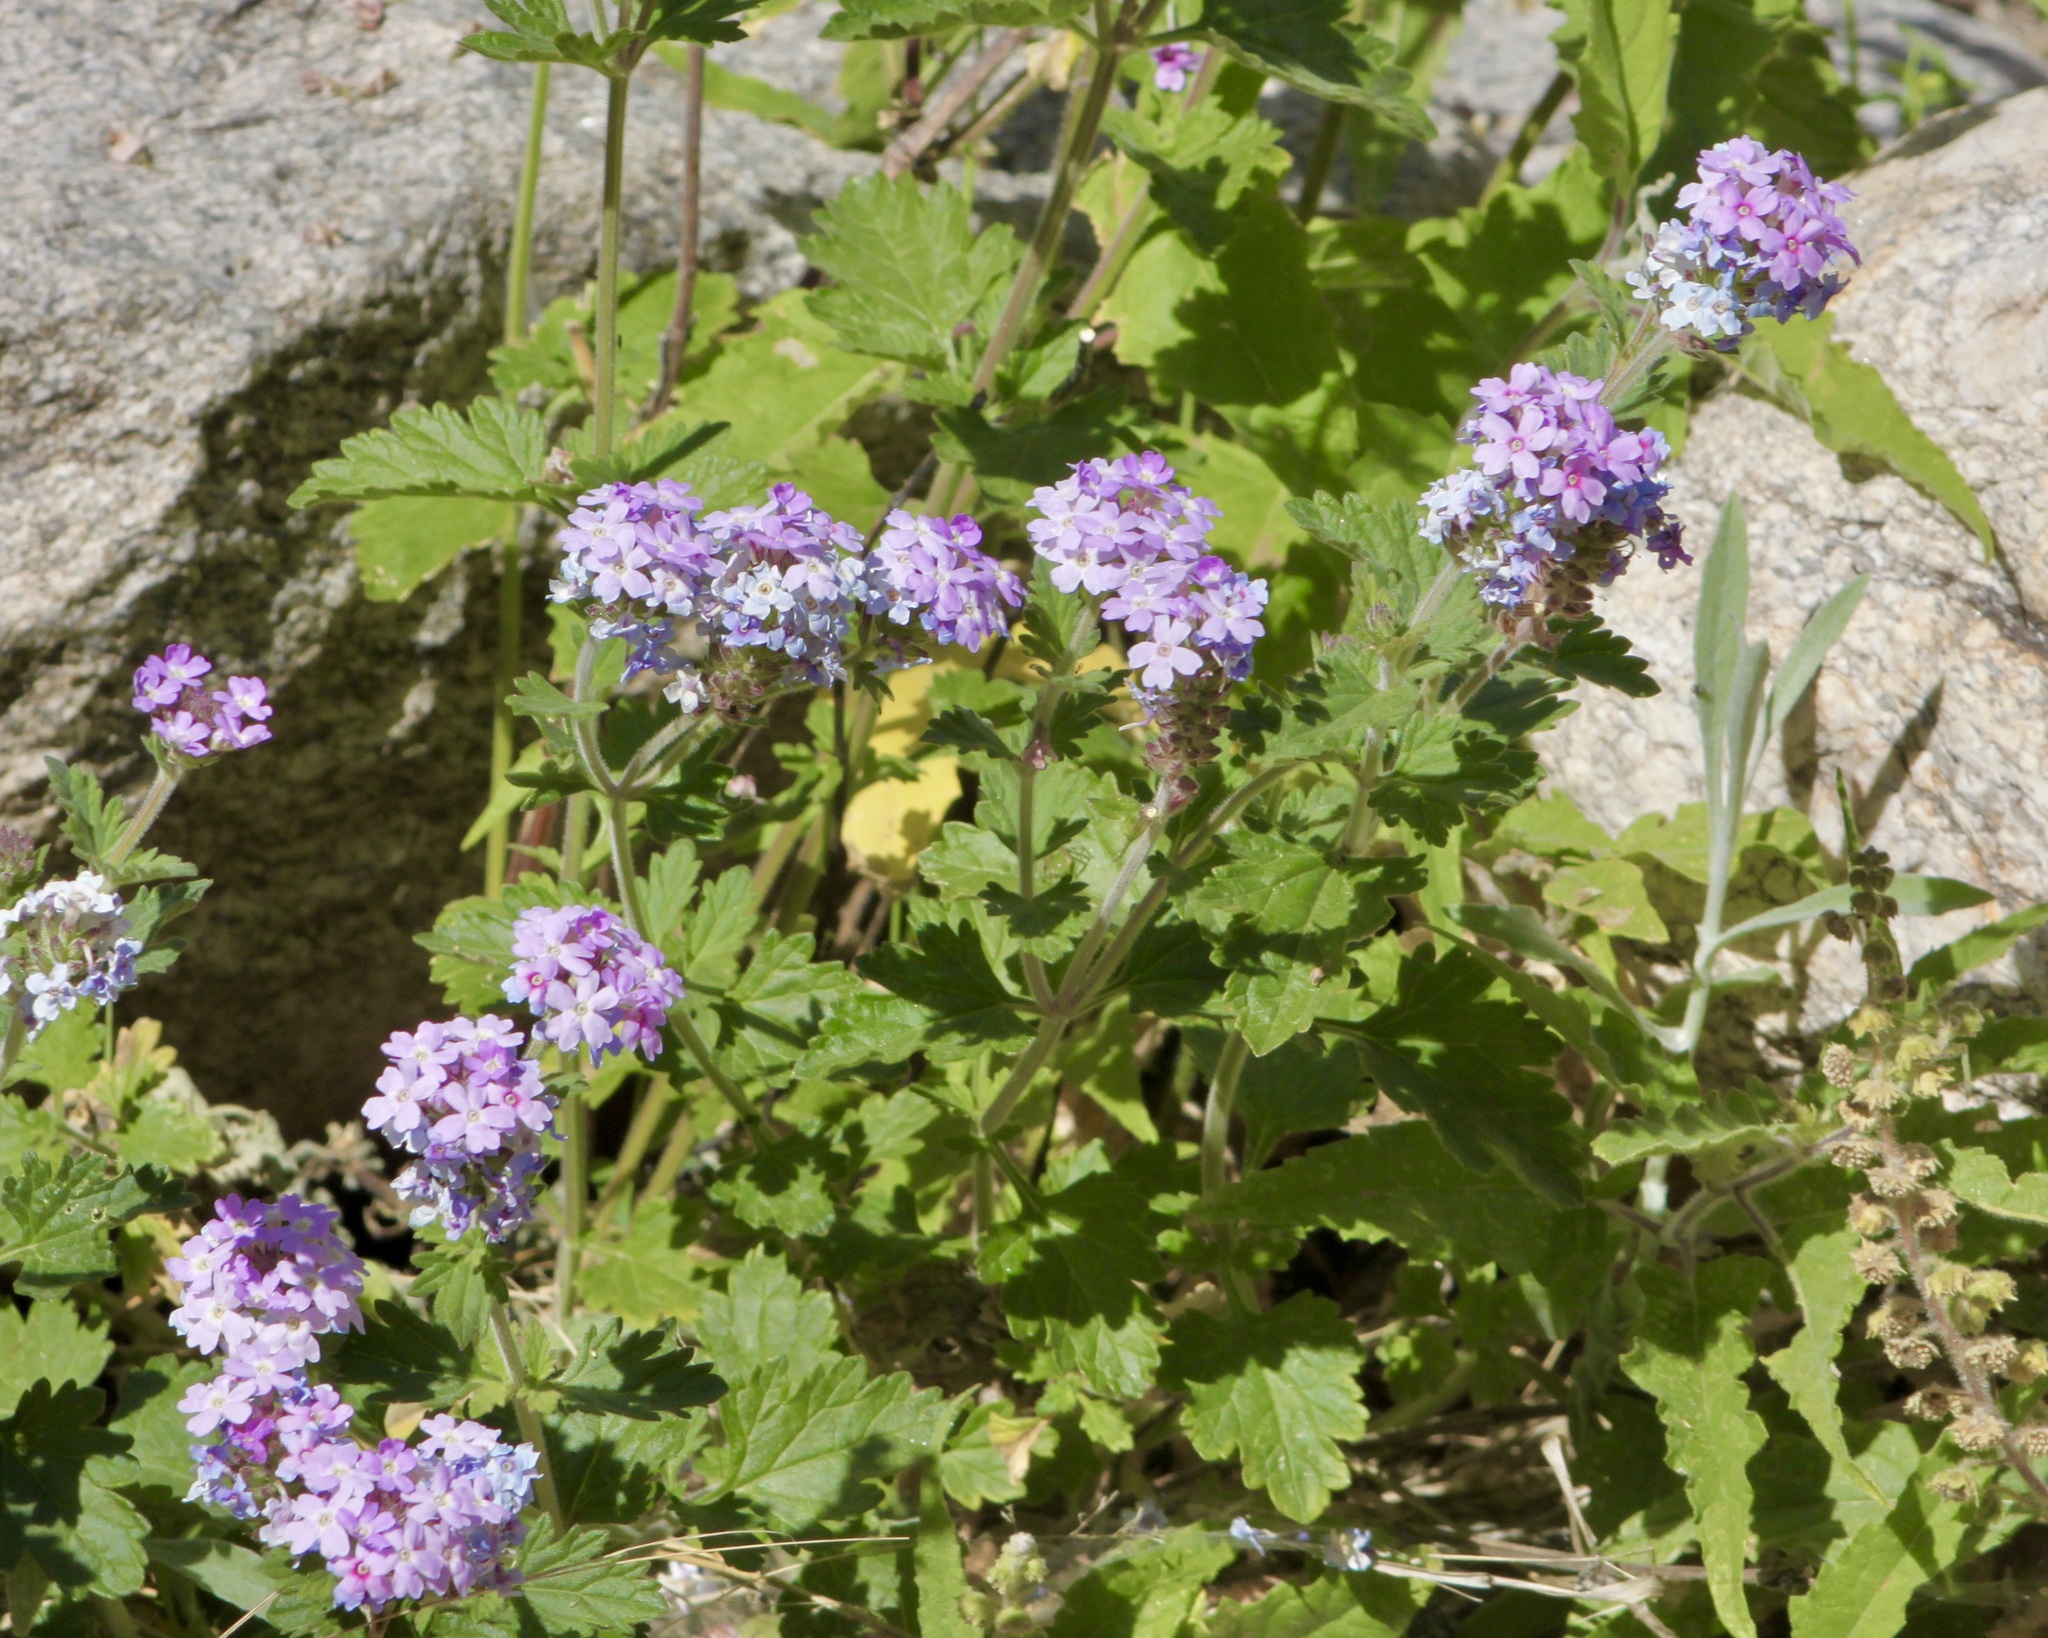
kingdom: Plantae
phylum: Tracheophyta
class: Magnoliopsida
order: Lamiales
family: Verbenaceae
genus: Verbena
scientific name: Verbena gooddingii
